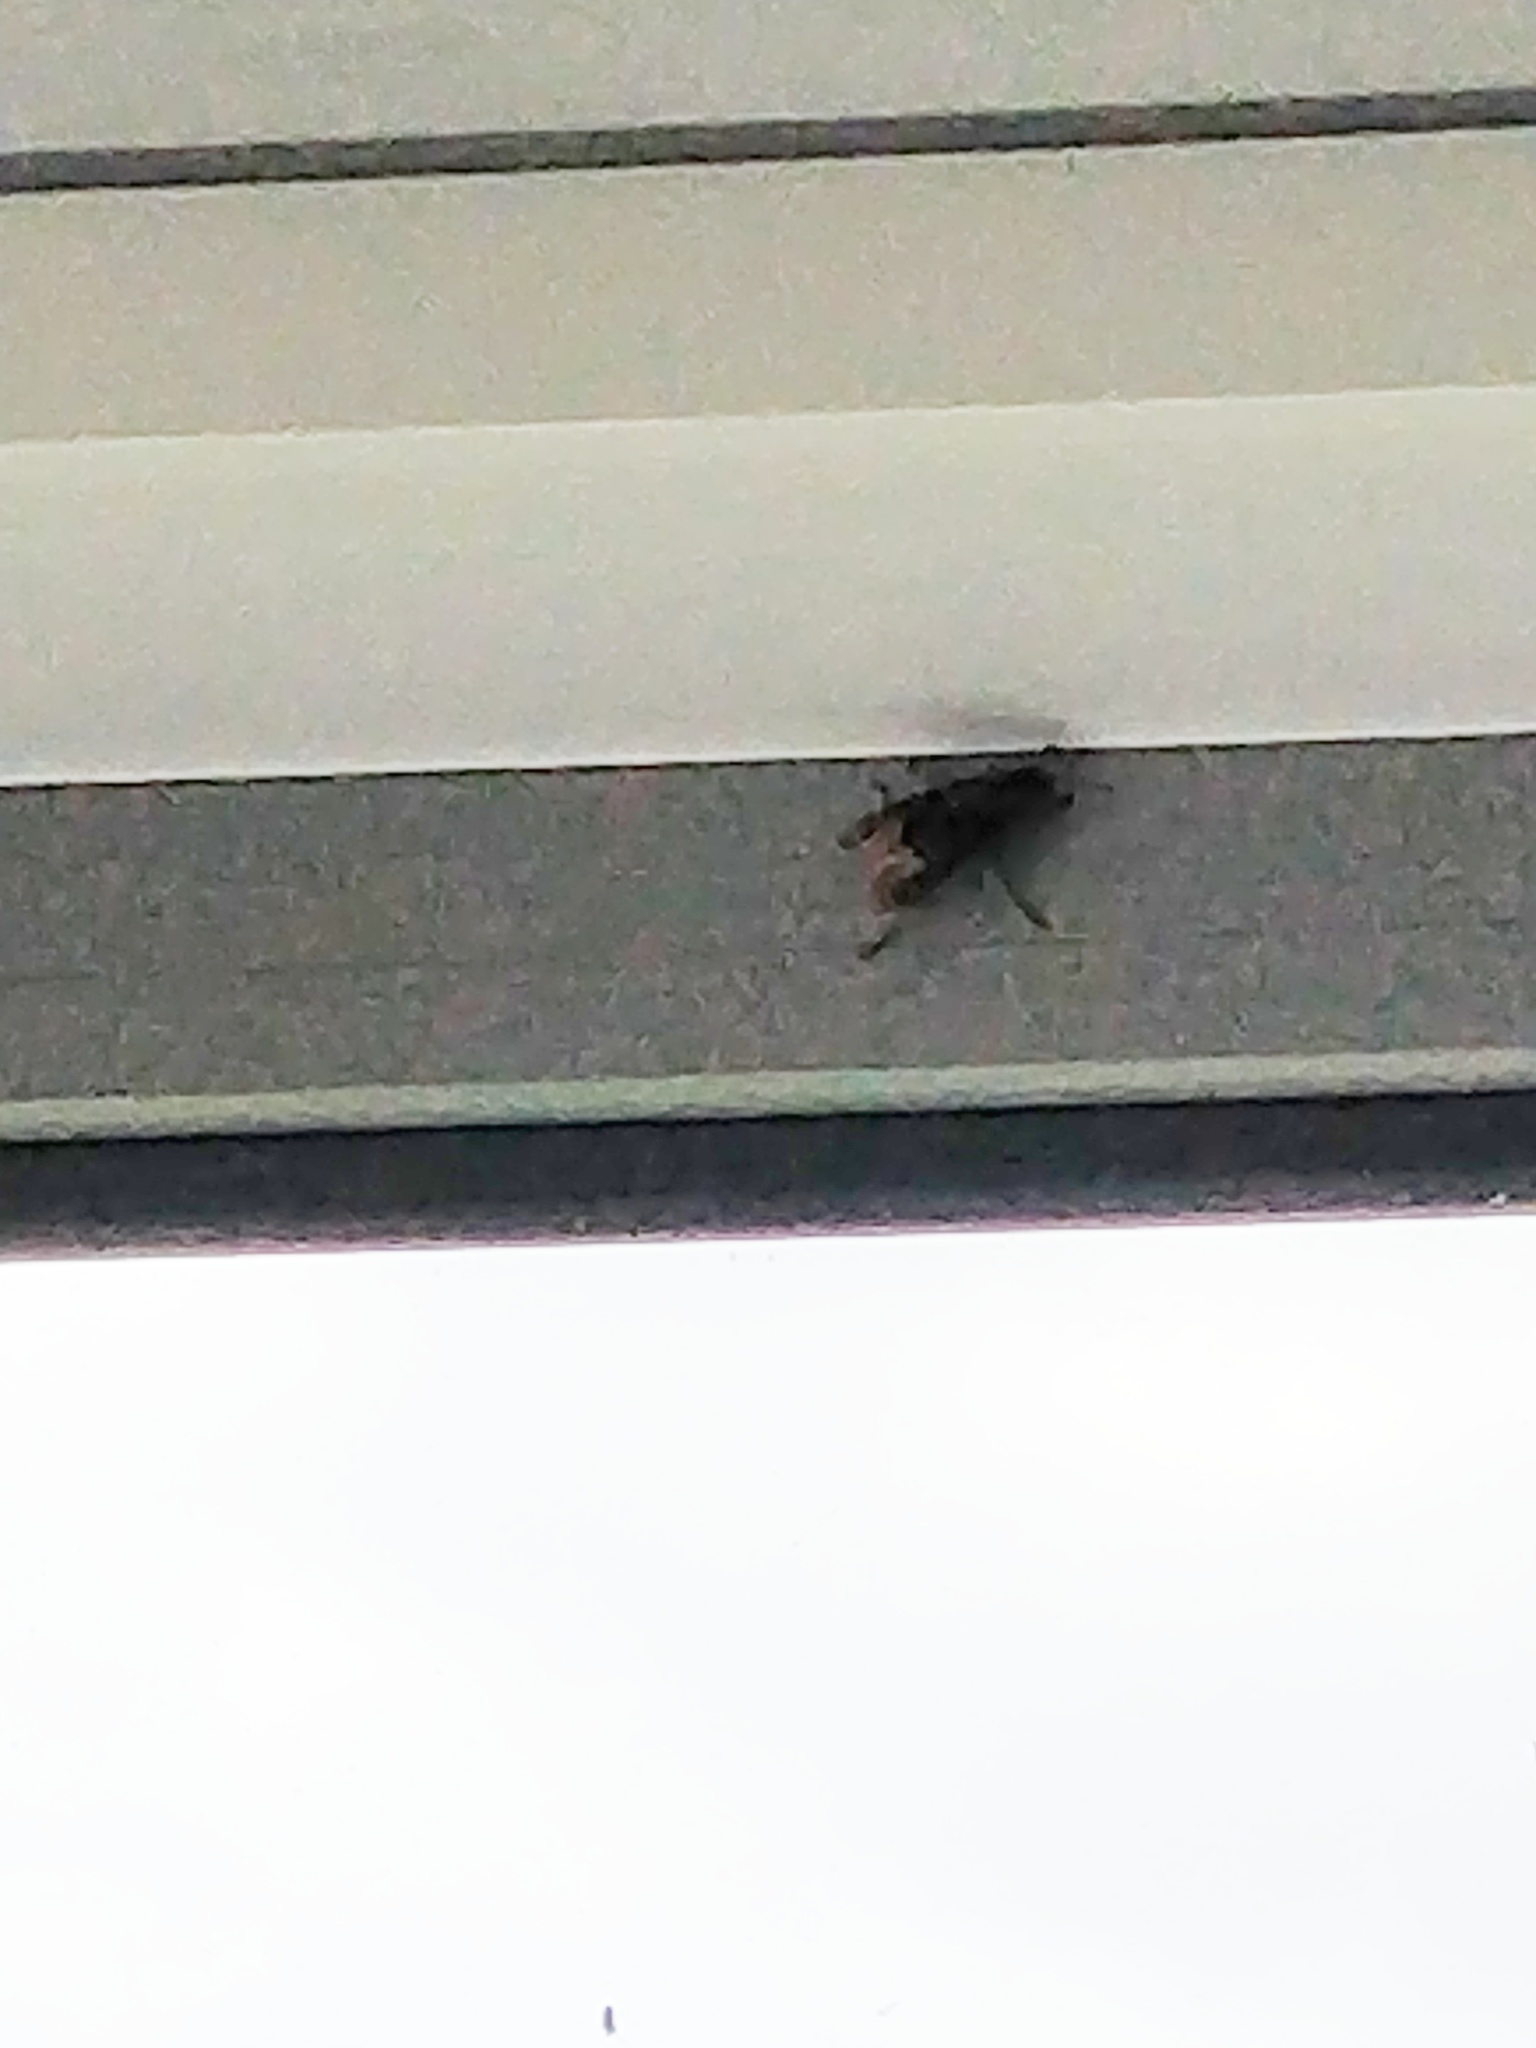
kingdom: Animalia
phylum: Arthropoda
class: Insecta
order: Hymenoptera
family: Vespidae
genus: Vespa
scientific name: Vespa crabro
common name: Hornet
